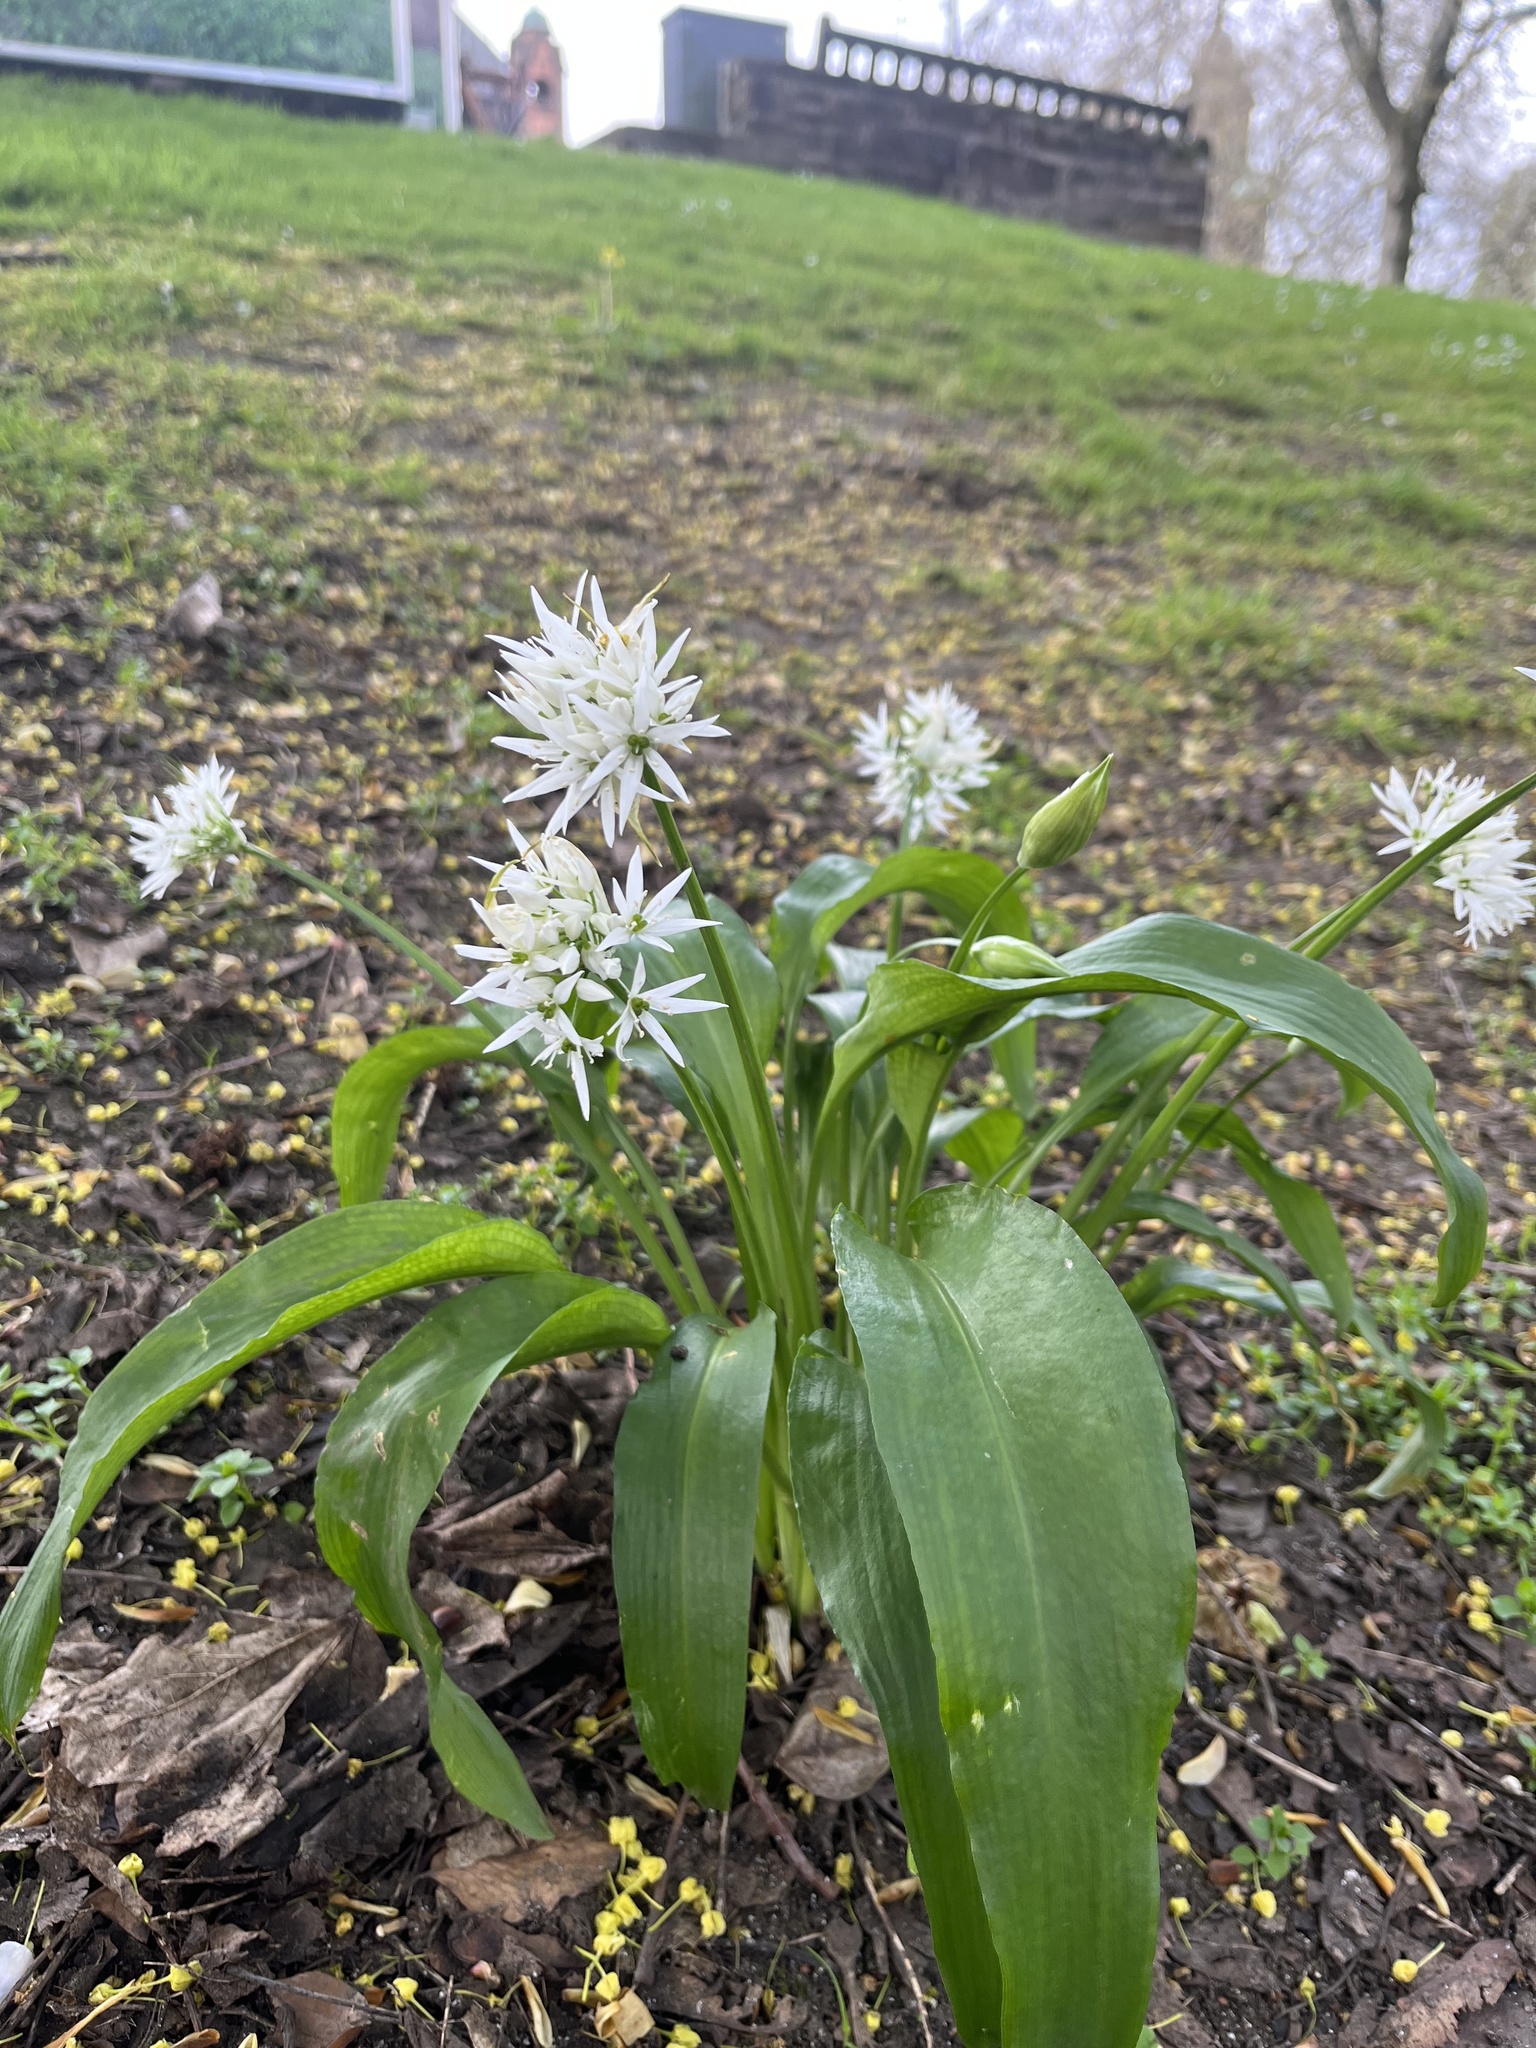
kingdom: Plantae
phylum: Tracheophyta
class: Liliopsida
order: Asparagales
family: Amaryllidaceae
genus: Allium
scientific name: Allium ursinum
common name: Ramsons
